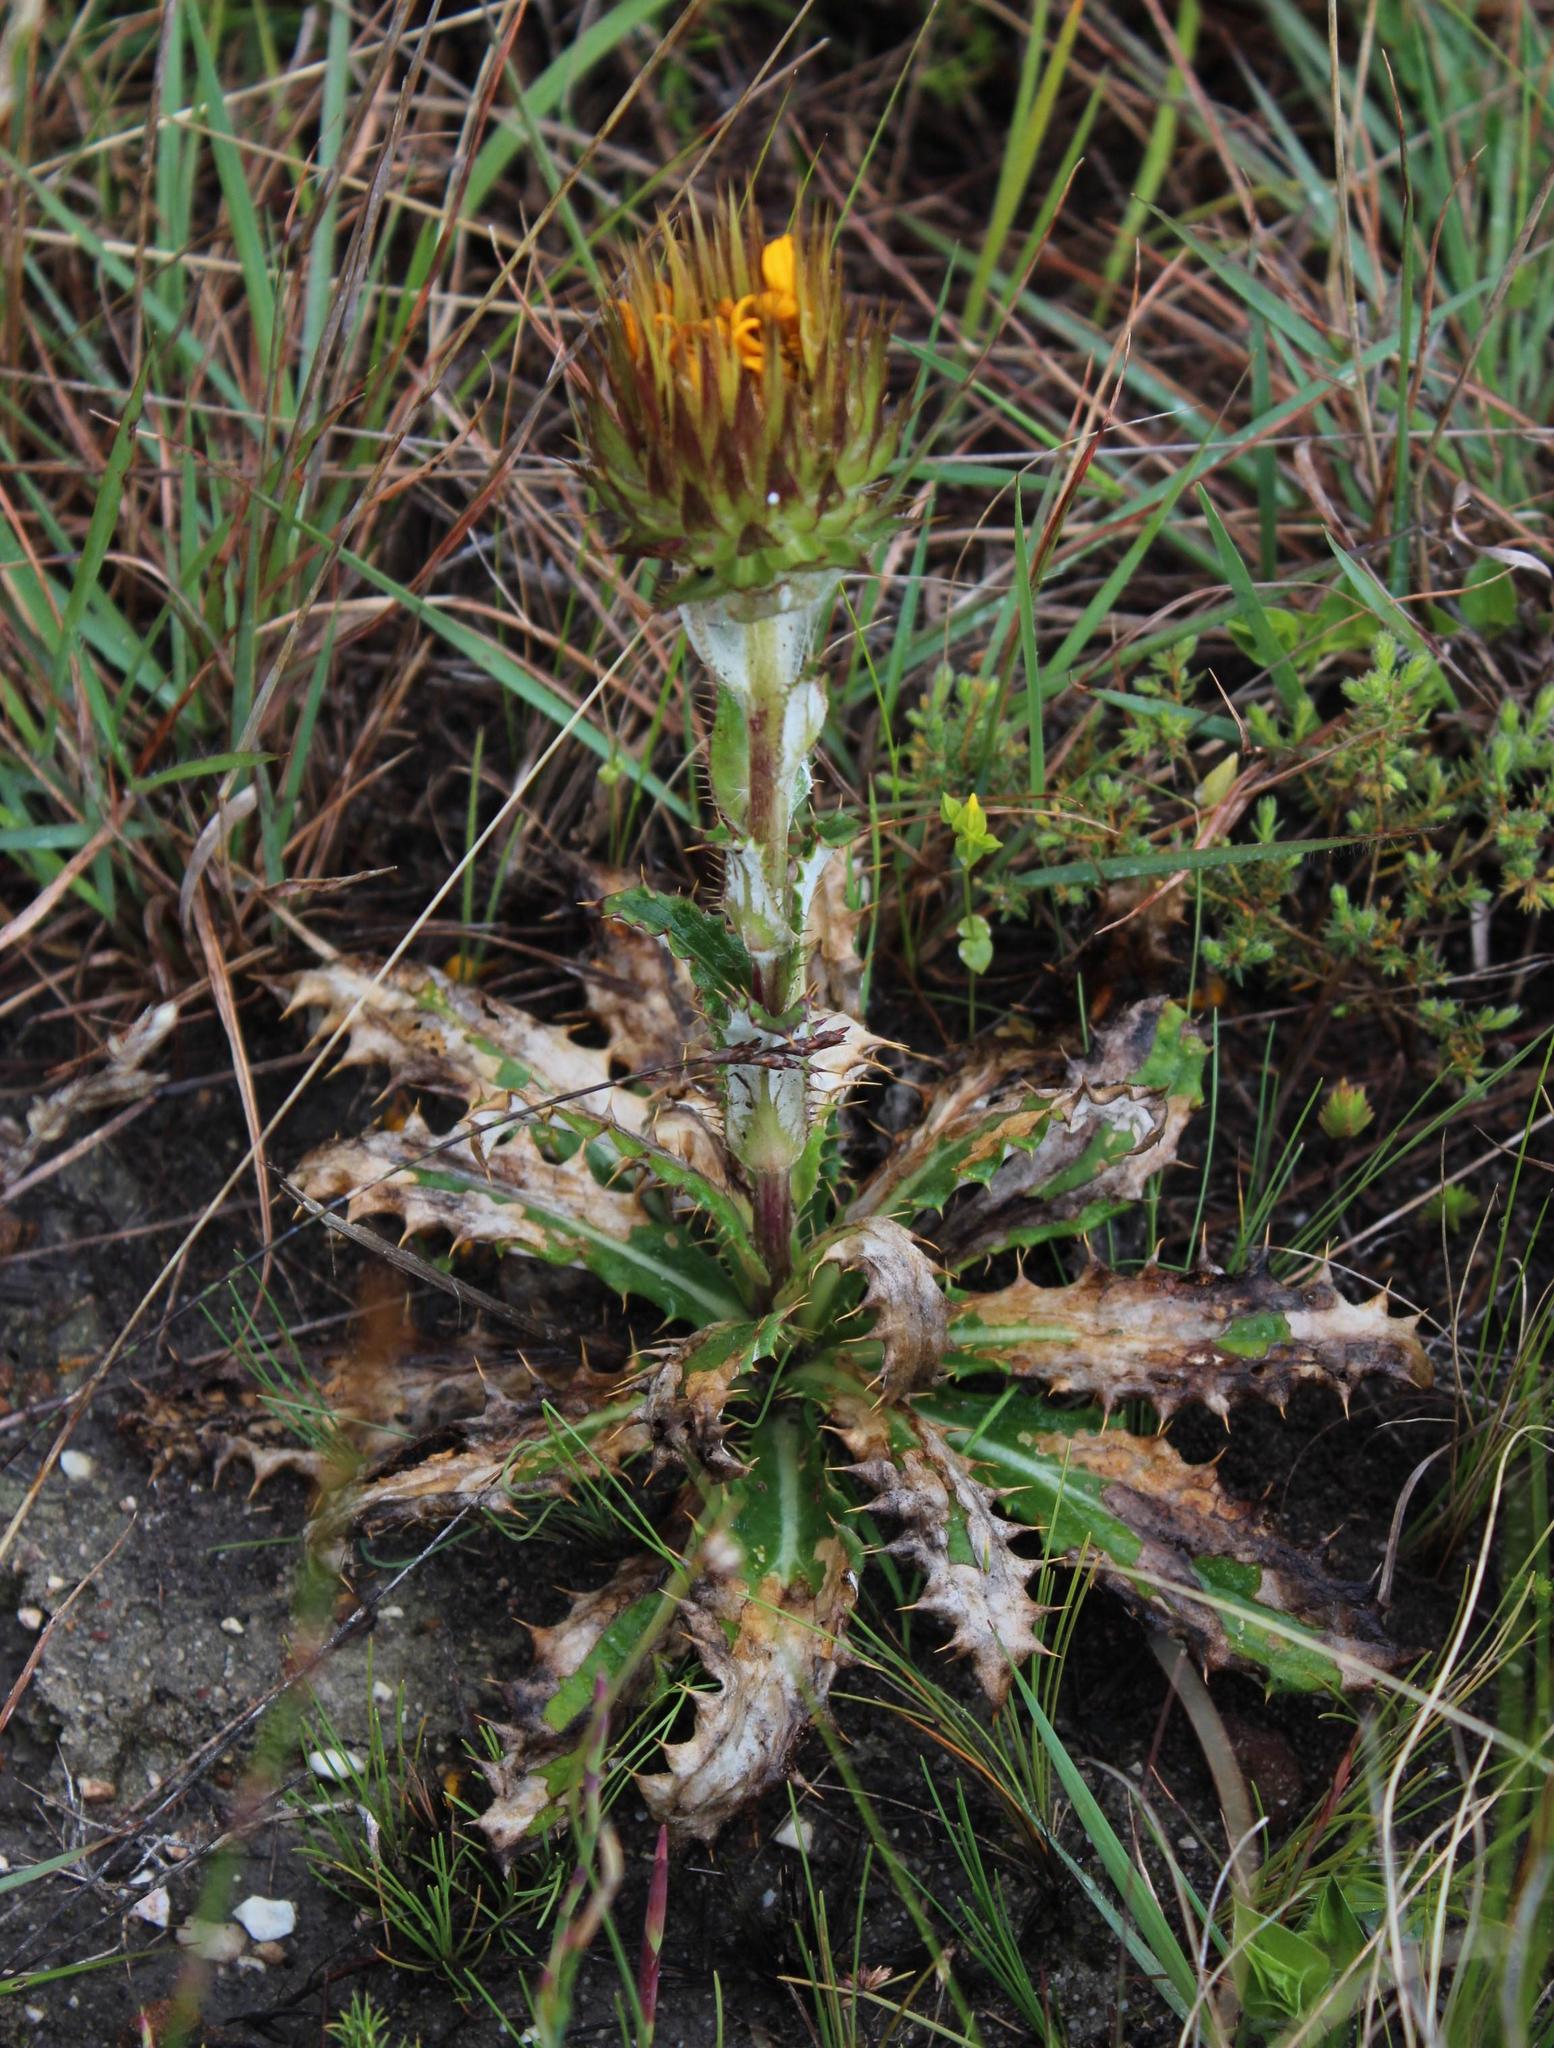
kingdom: Plantae
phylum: Tracheophyta
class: Magnoliopsida
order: Asterales
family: Asteraceae
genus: Berkheya
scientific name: Berkheya herbacea
